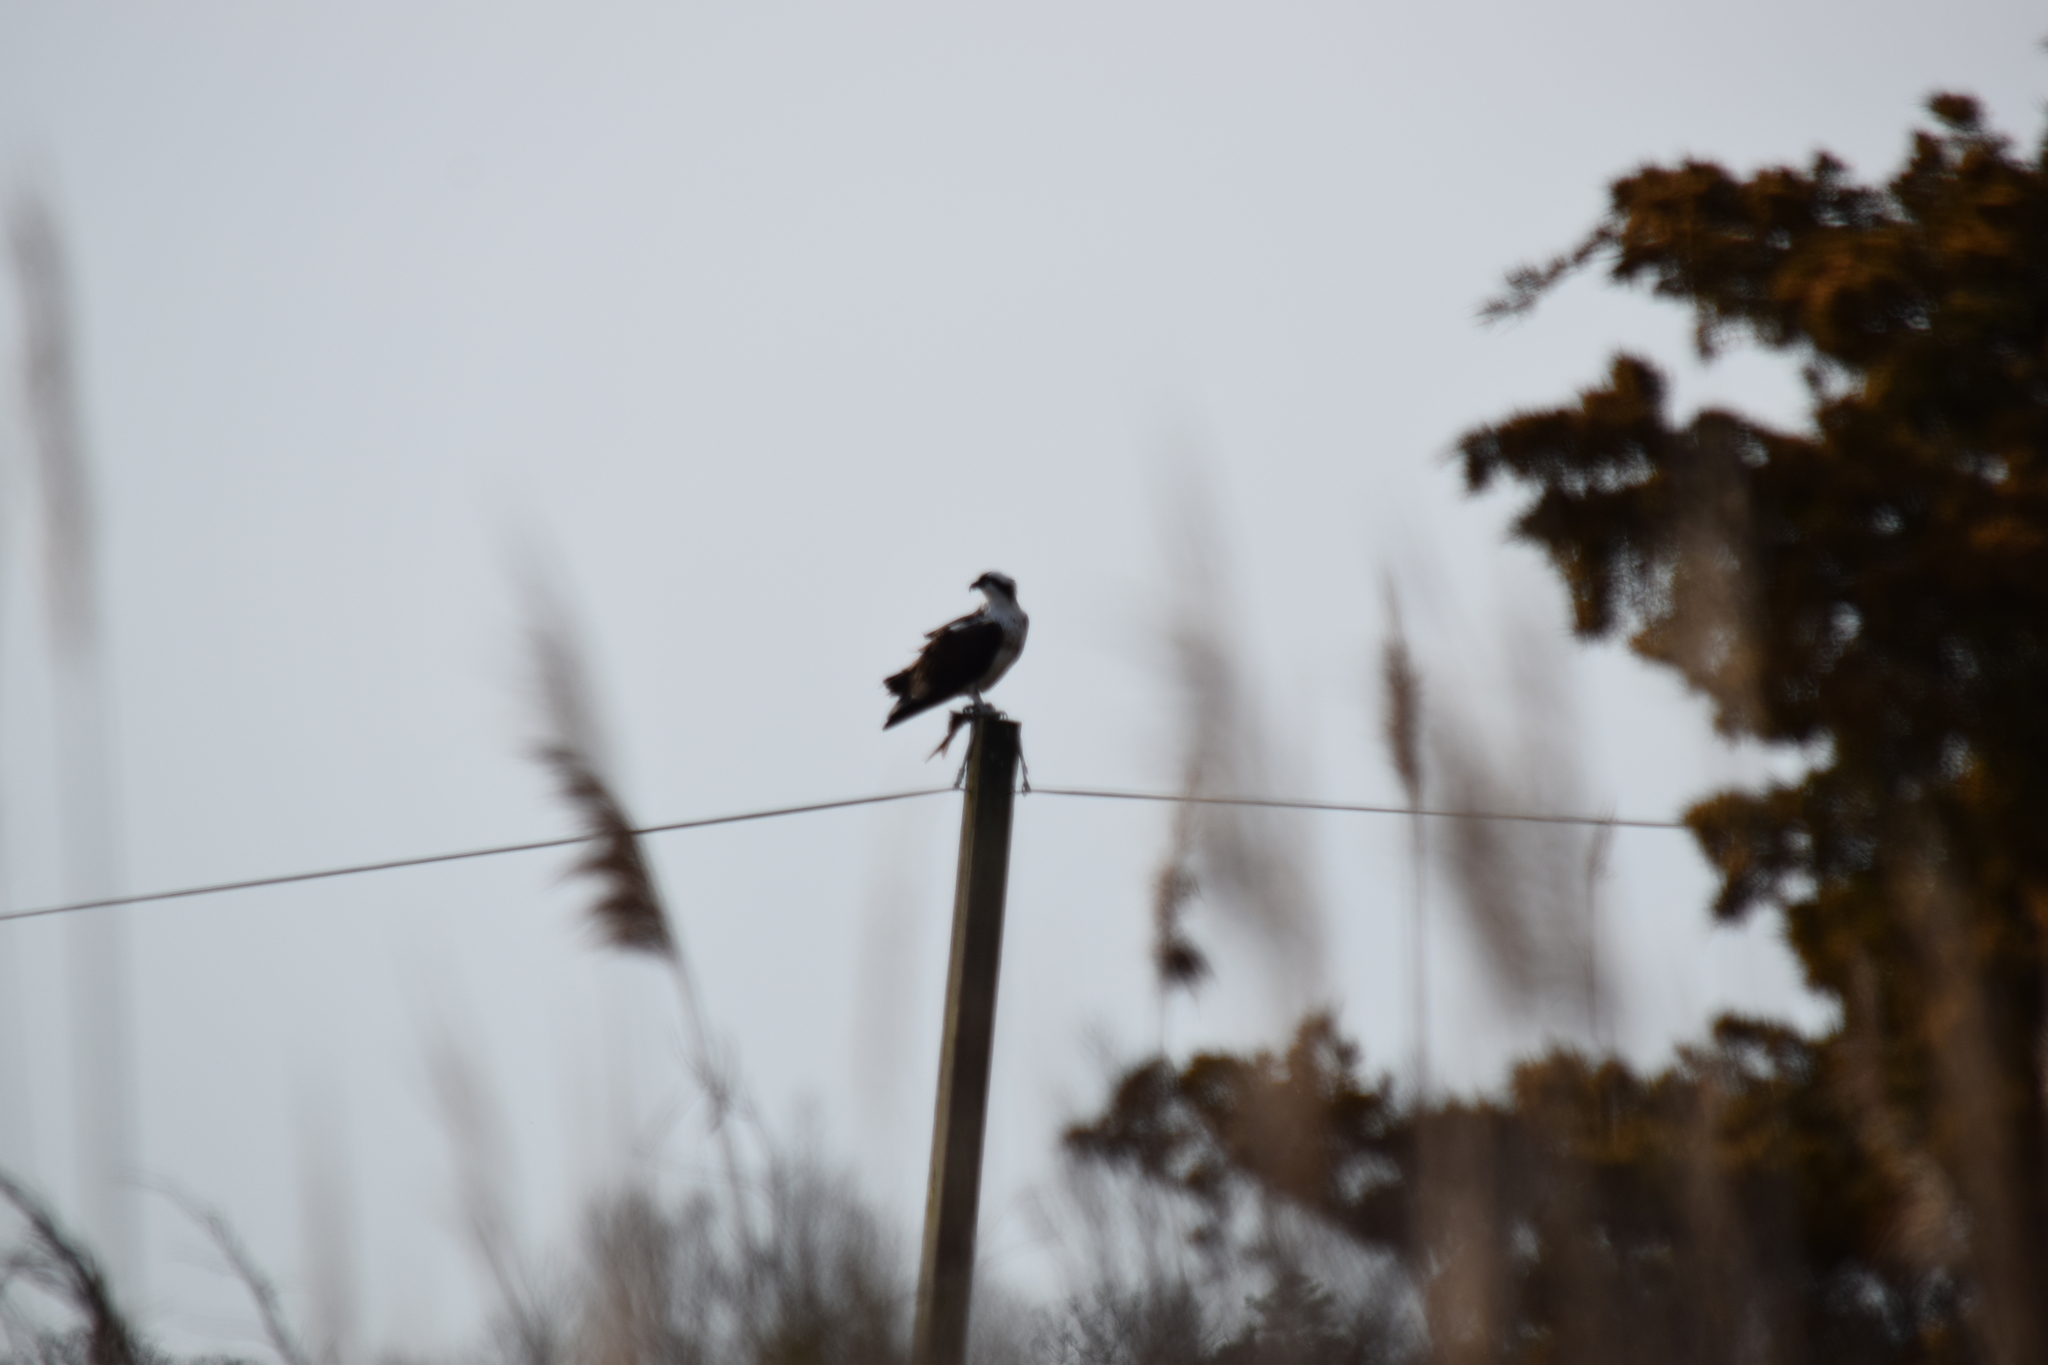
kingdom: Animalia
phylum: Chordata
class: Aves
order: Accipitriformes
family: Pandionidae
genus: Pandion
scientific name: Pandion haliaetus
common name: Osprey
